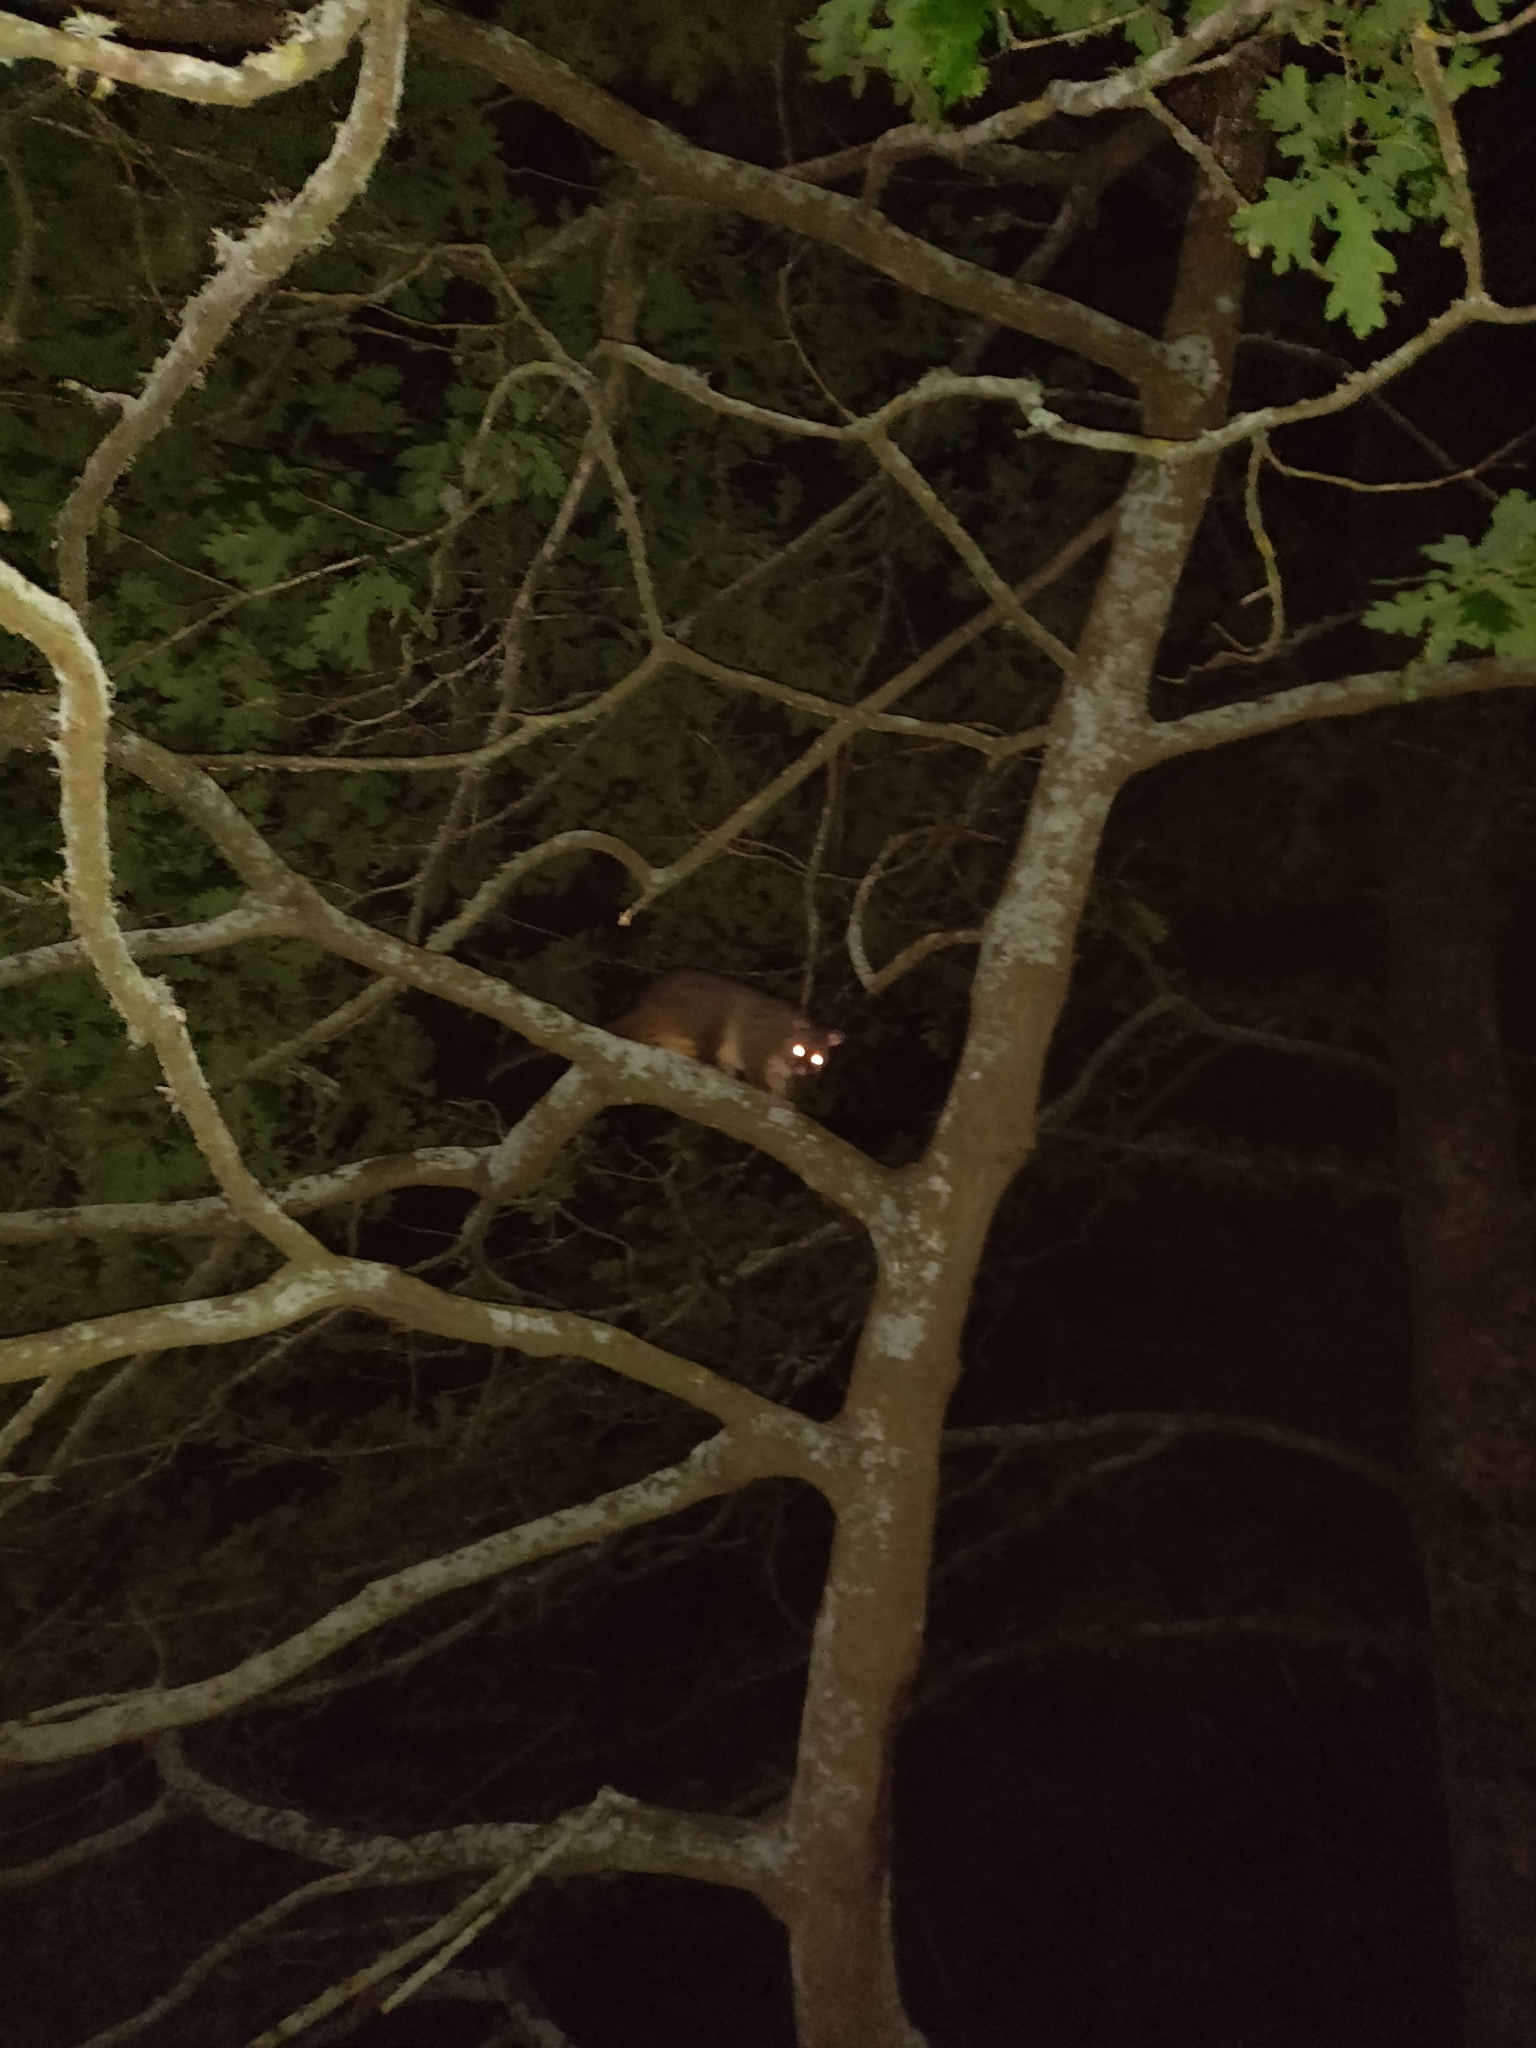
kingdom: Animalia
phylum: Chordata
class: Mammalia
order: Diprotodontia
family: Phalangeridae
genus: Trichosurus
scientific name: Trichosurus vulpecula
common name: Common brushtail
